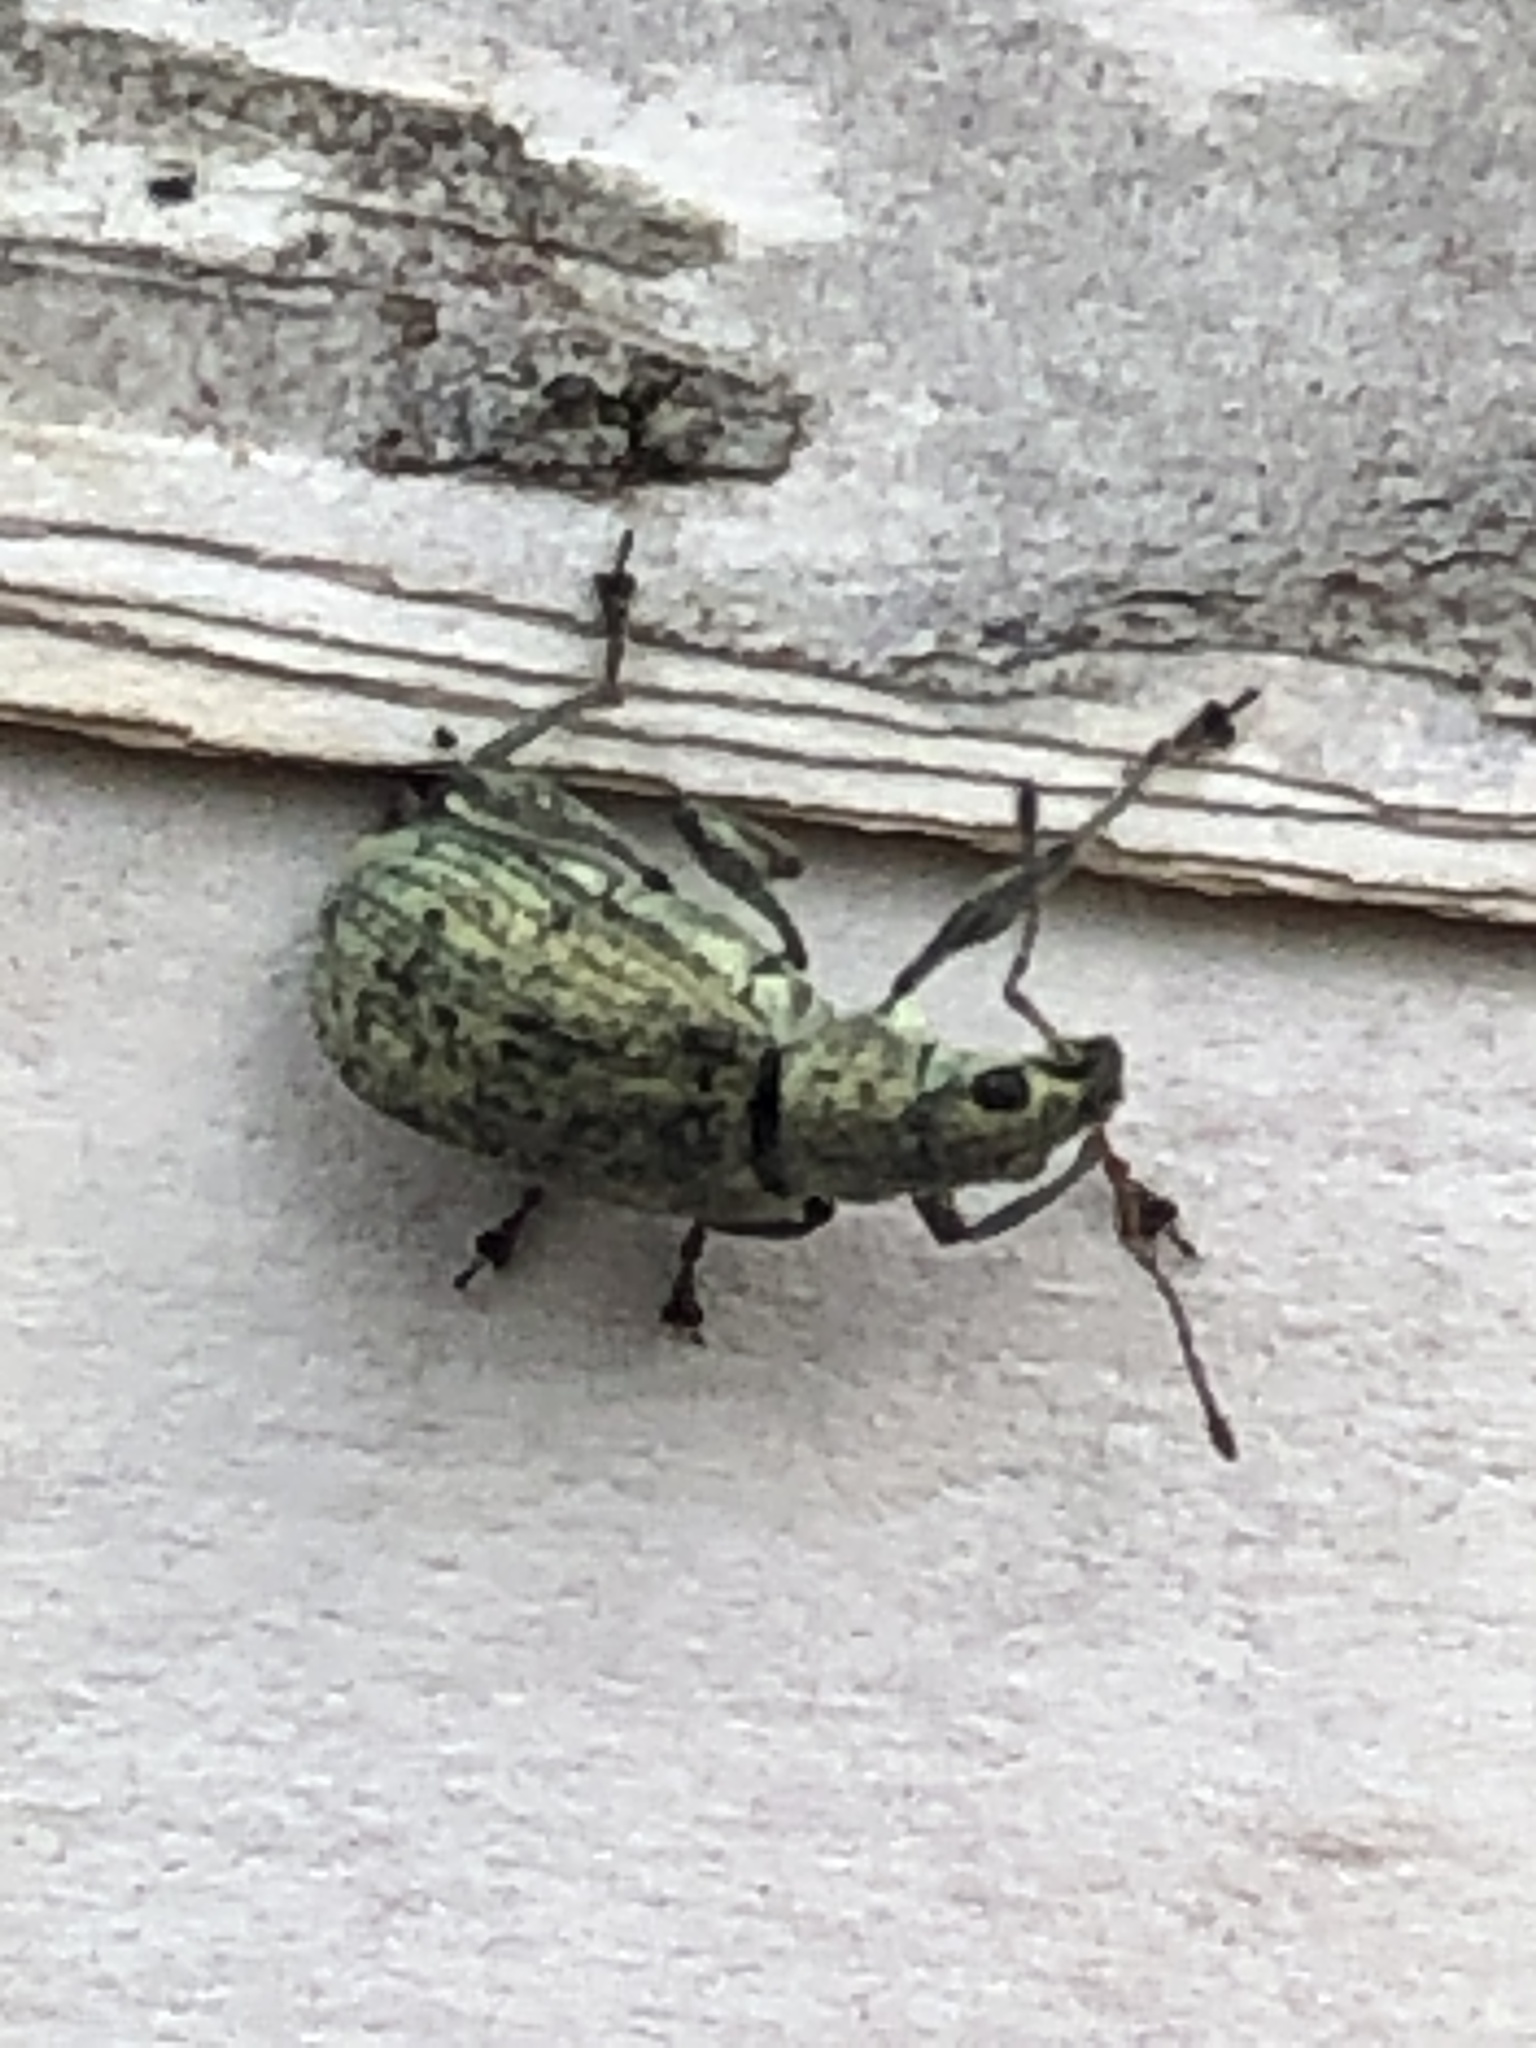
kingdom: Animalia
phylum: Arthropoda
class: Insecta
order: Coleoptera
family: Curculionidae
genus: Polydrusus
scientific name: Polydrusus cervinus
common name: Weevil
